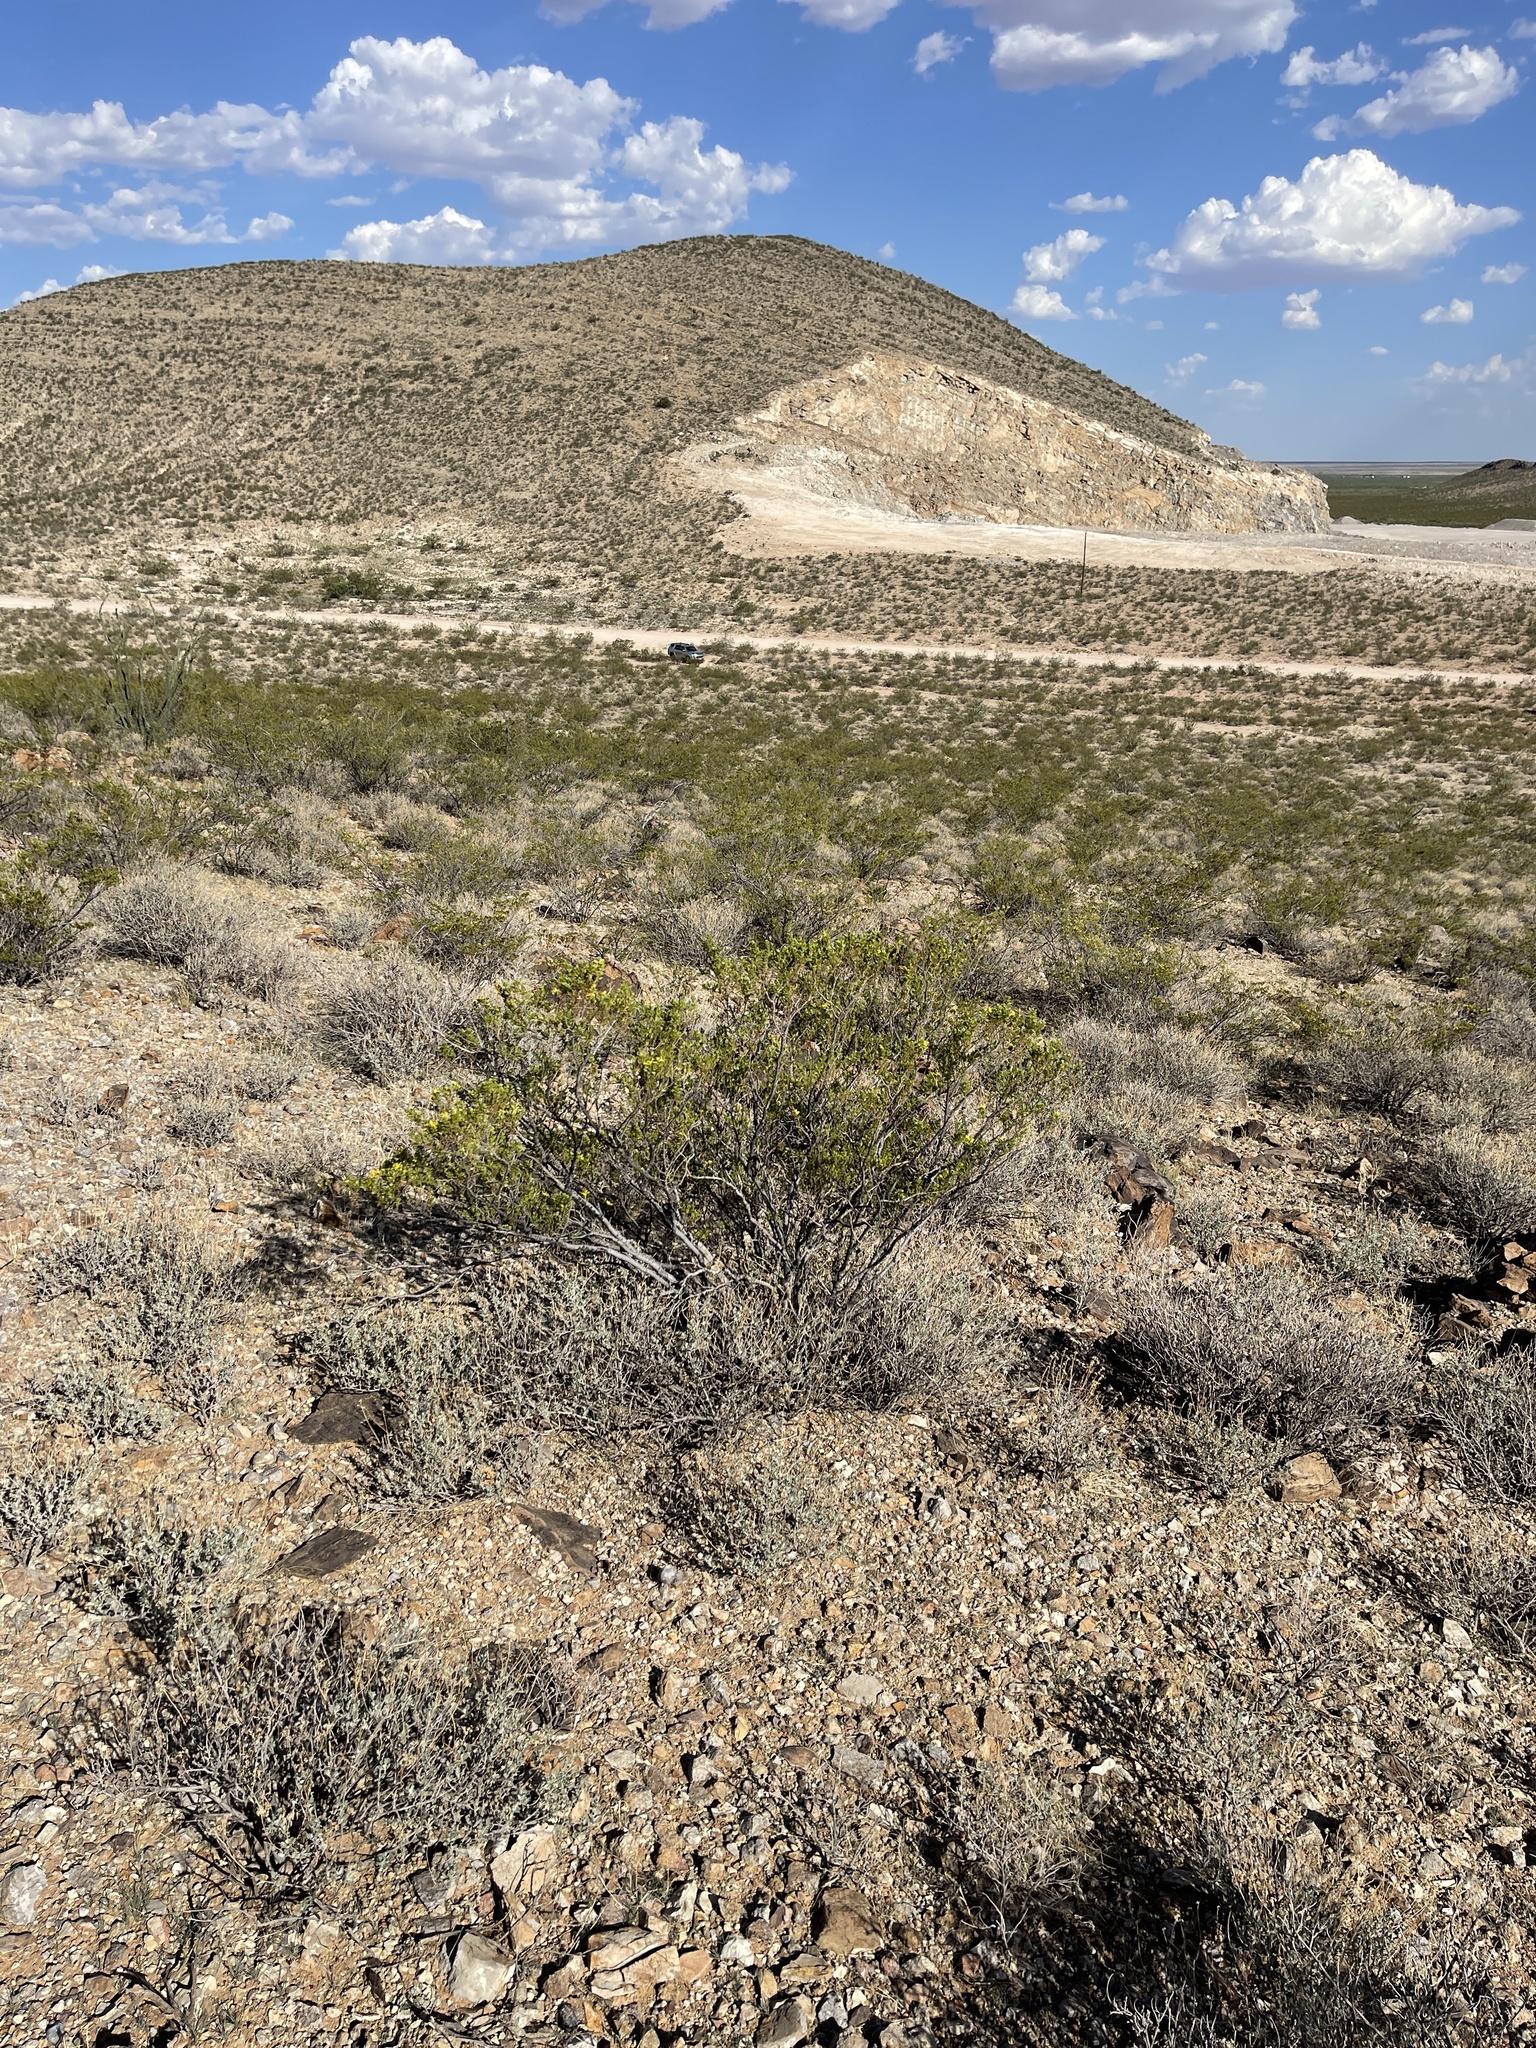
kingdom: Plantae
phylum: Tracheophyta
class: Magnoliopsida
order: Zygophyllales
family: Zygophyllaceae
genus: Larrea
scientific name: Larrea tridentata
